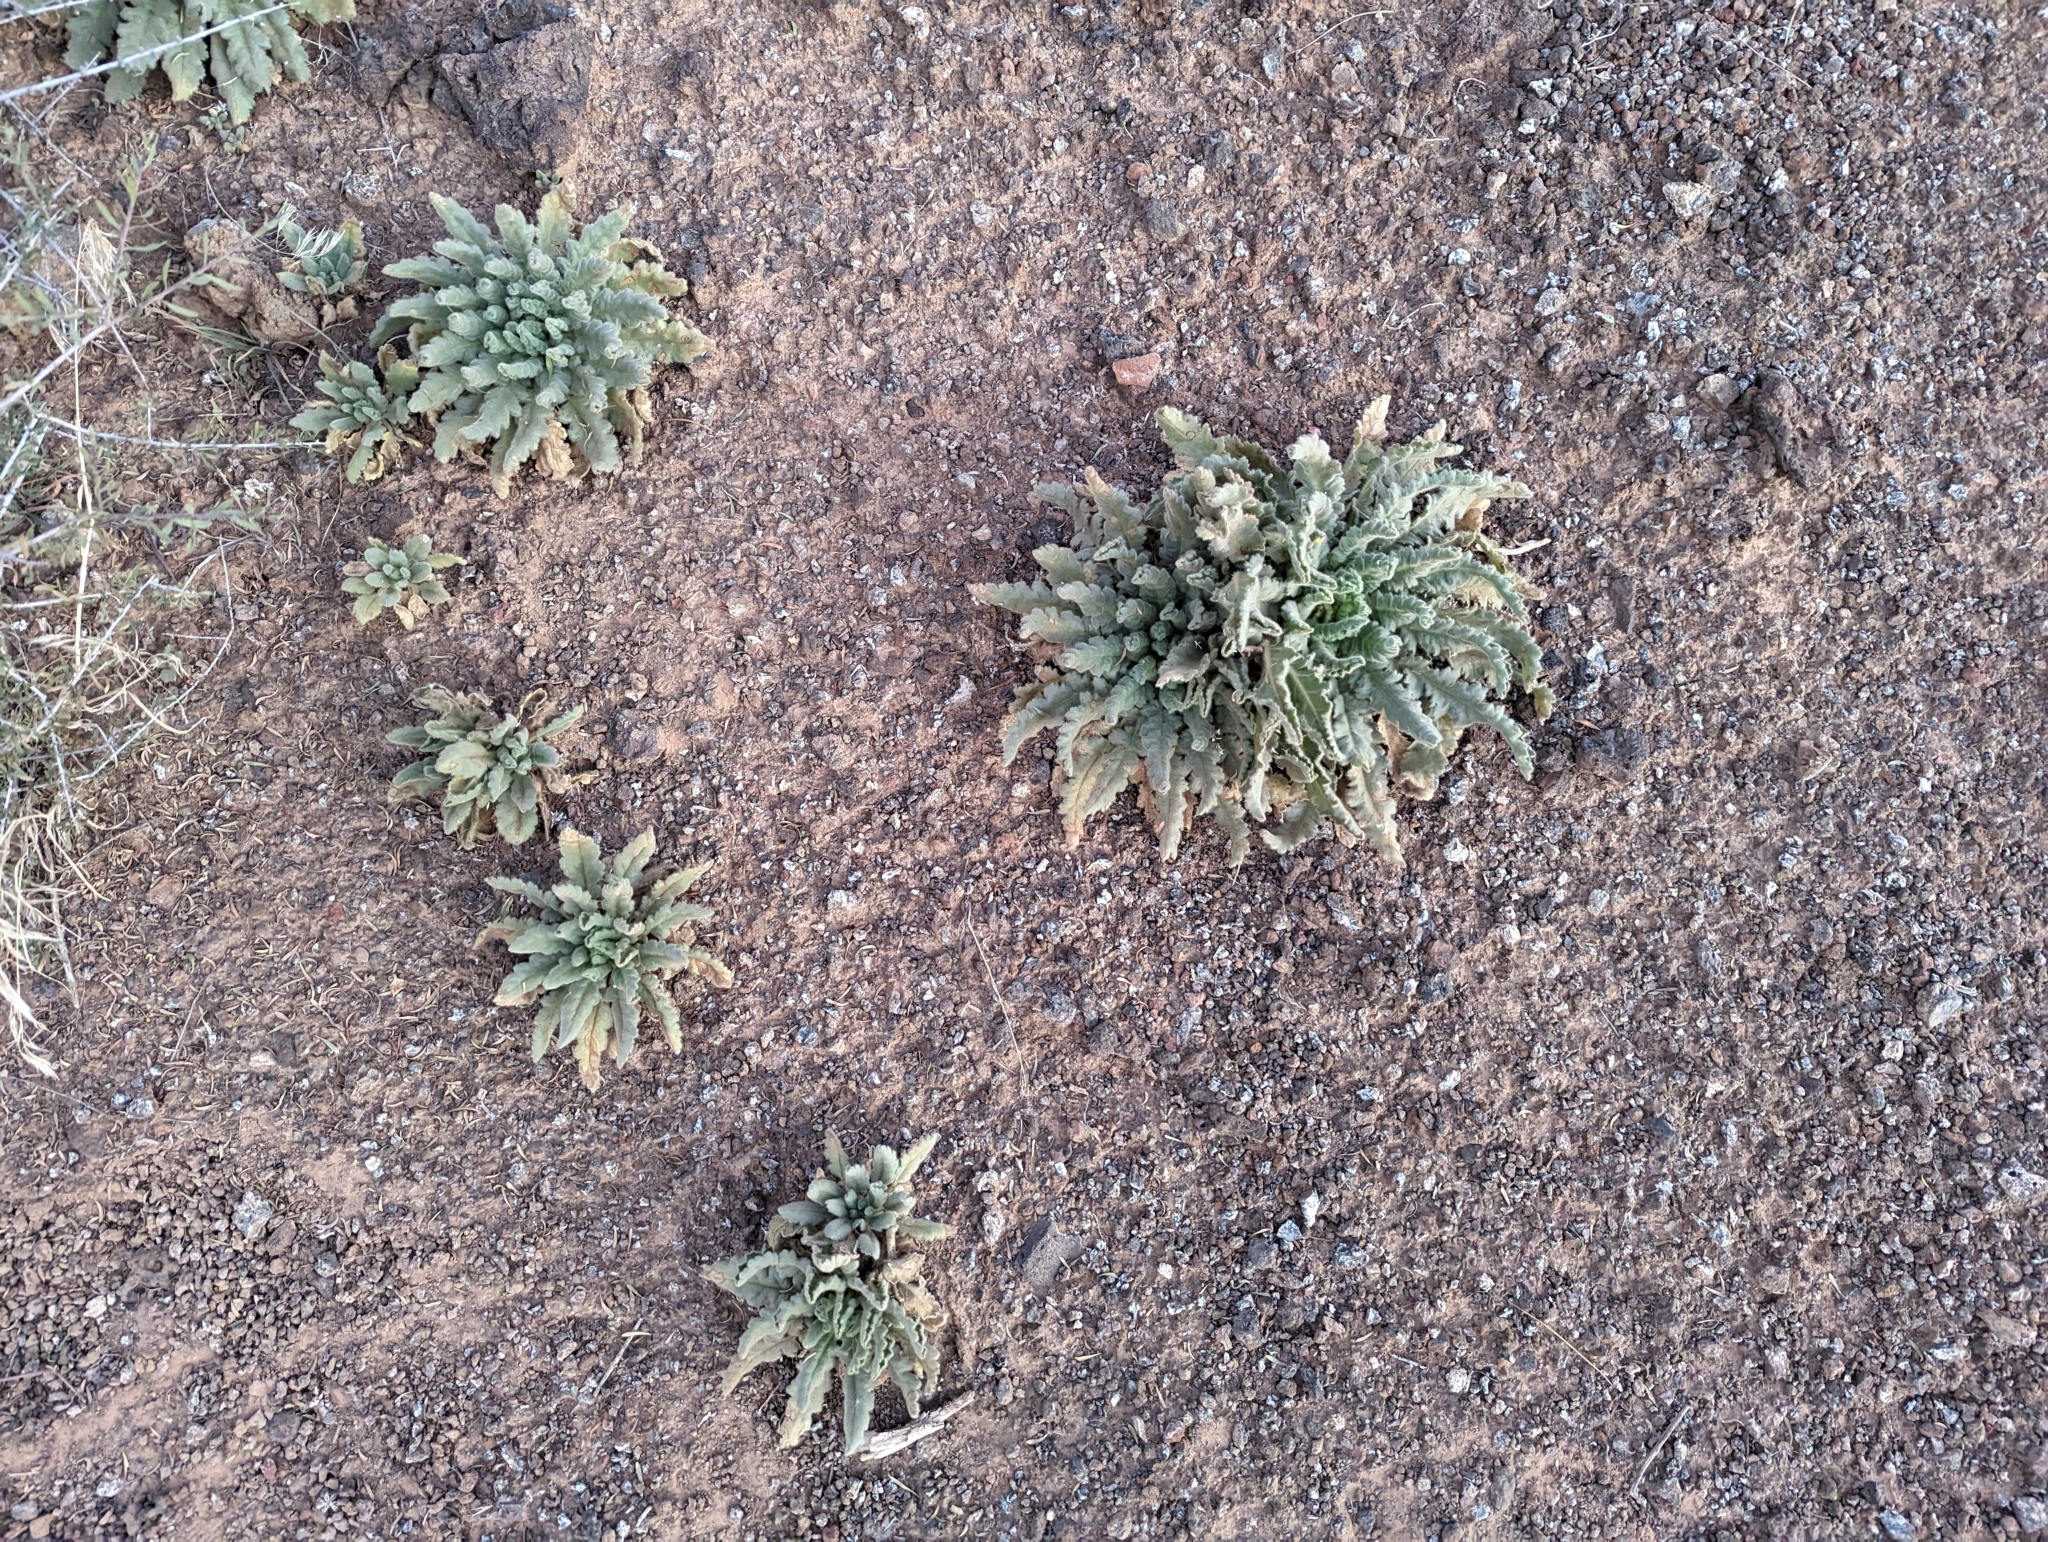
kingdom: Plantae
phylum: Tracheophyta
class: Magnoliopsida
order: Boraginales
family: Hydrophyllaceae
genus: Phacelia
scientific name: Phacelia integrifolia
